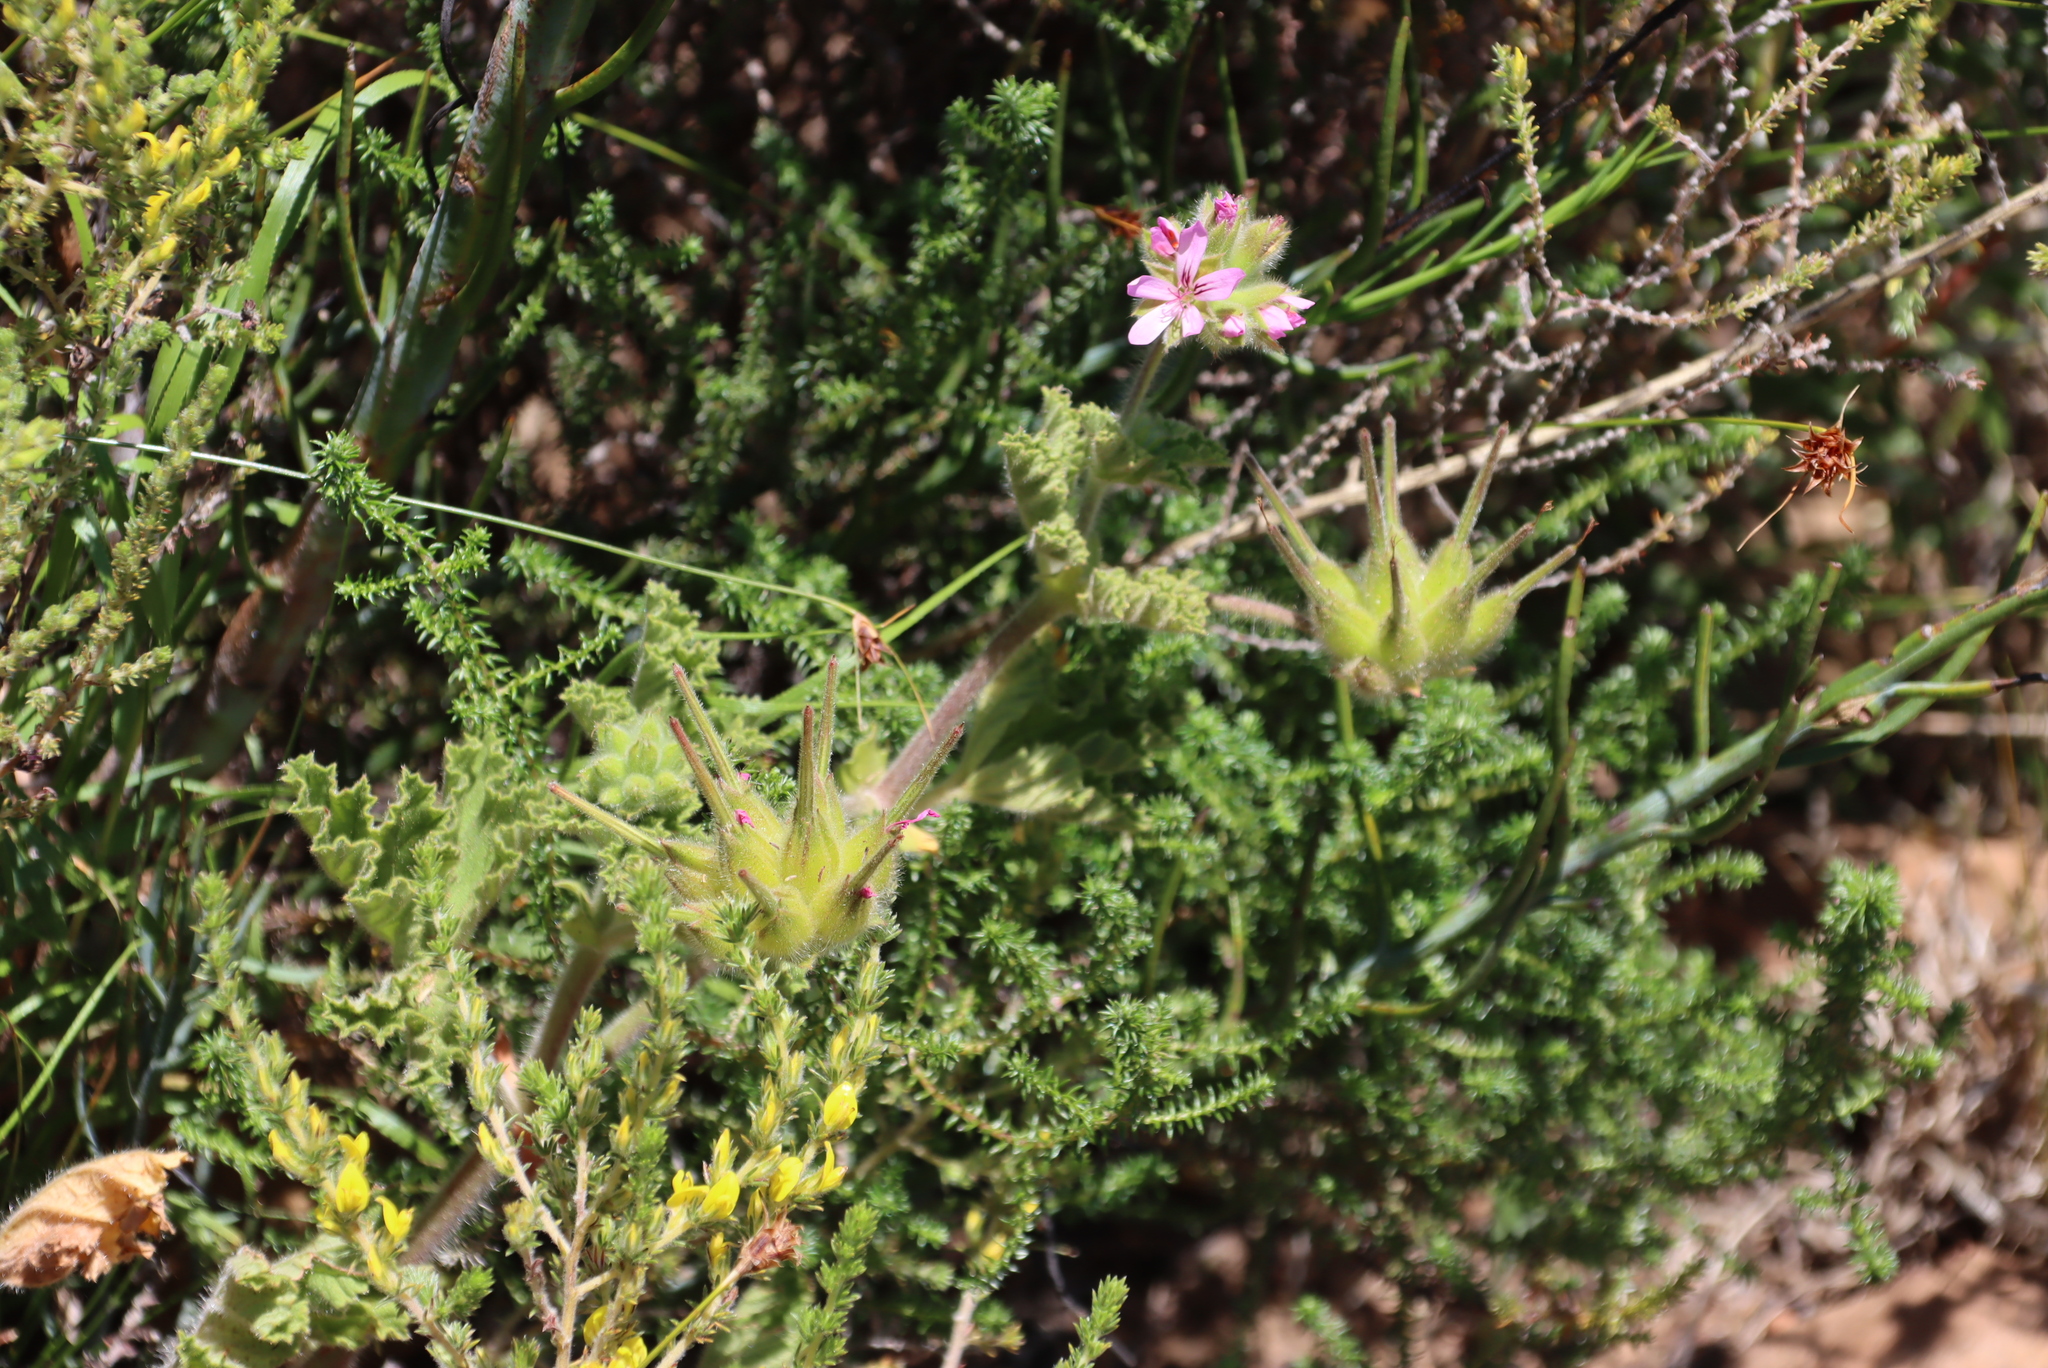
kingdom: Plantae
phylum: Tracheophyta
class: Magnoliopsida
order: Geraniales
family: Geraniaceae
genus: Pelargonium
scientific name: Pelargonium capitatum
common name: Rose scented geranium
